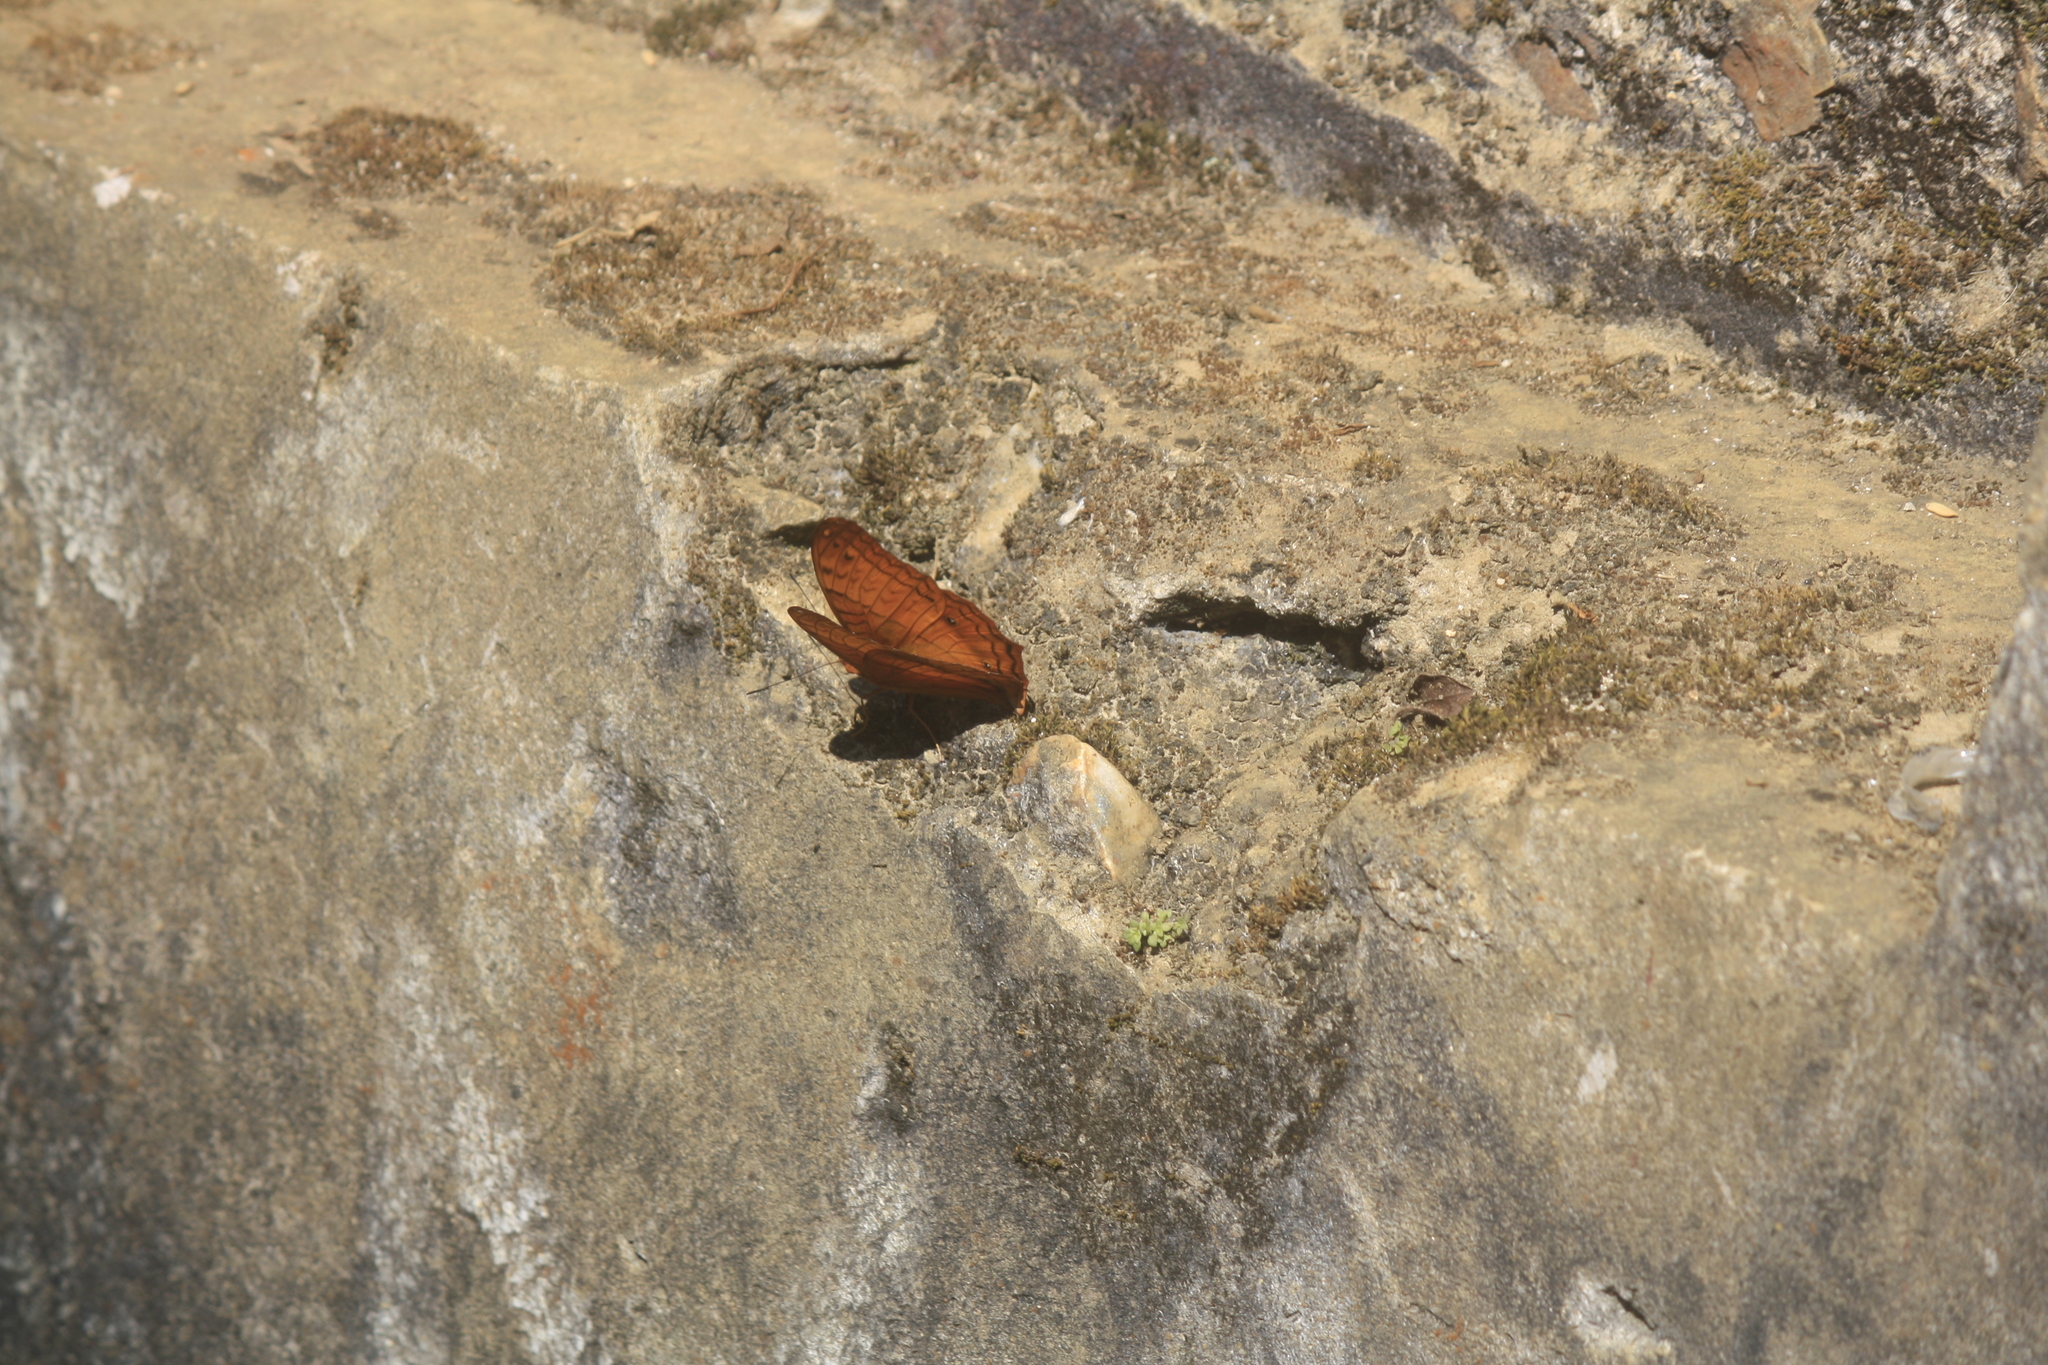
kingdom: Animalia
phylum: Arthropoda
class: Insecta
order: Lepidoptera
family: Nymphalidae
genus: Vindula
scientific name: Vindula erota
